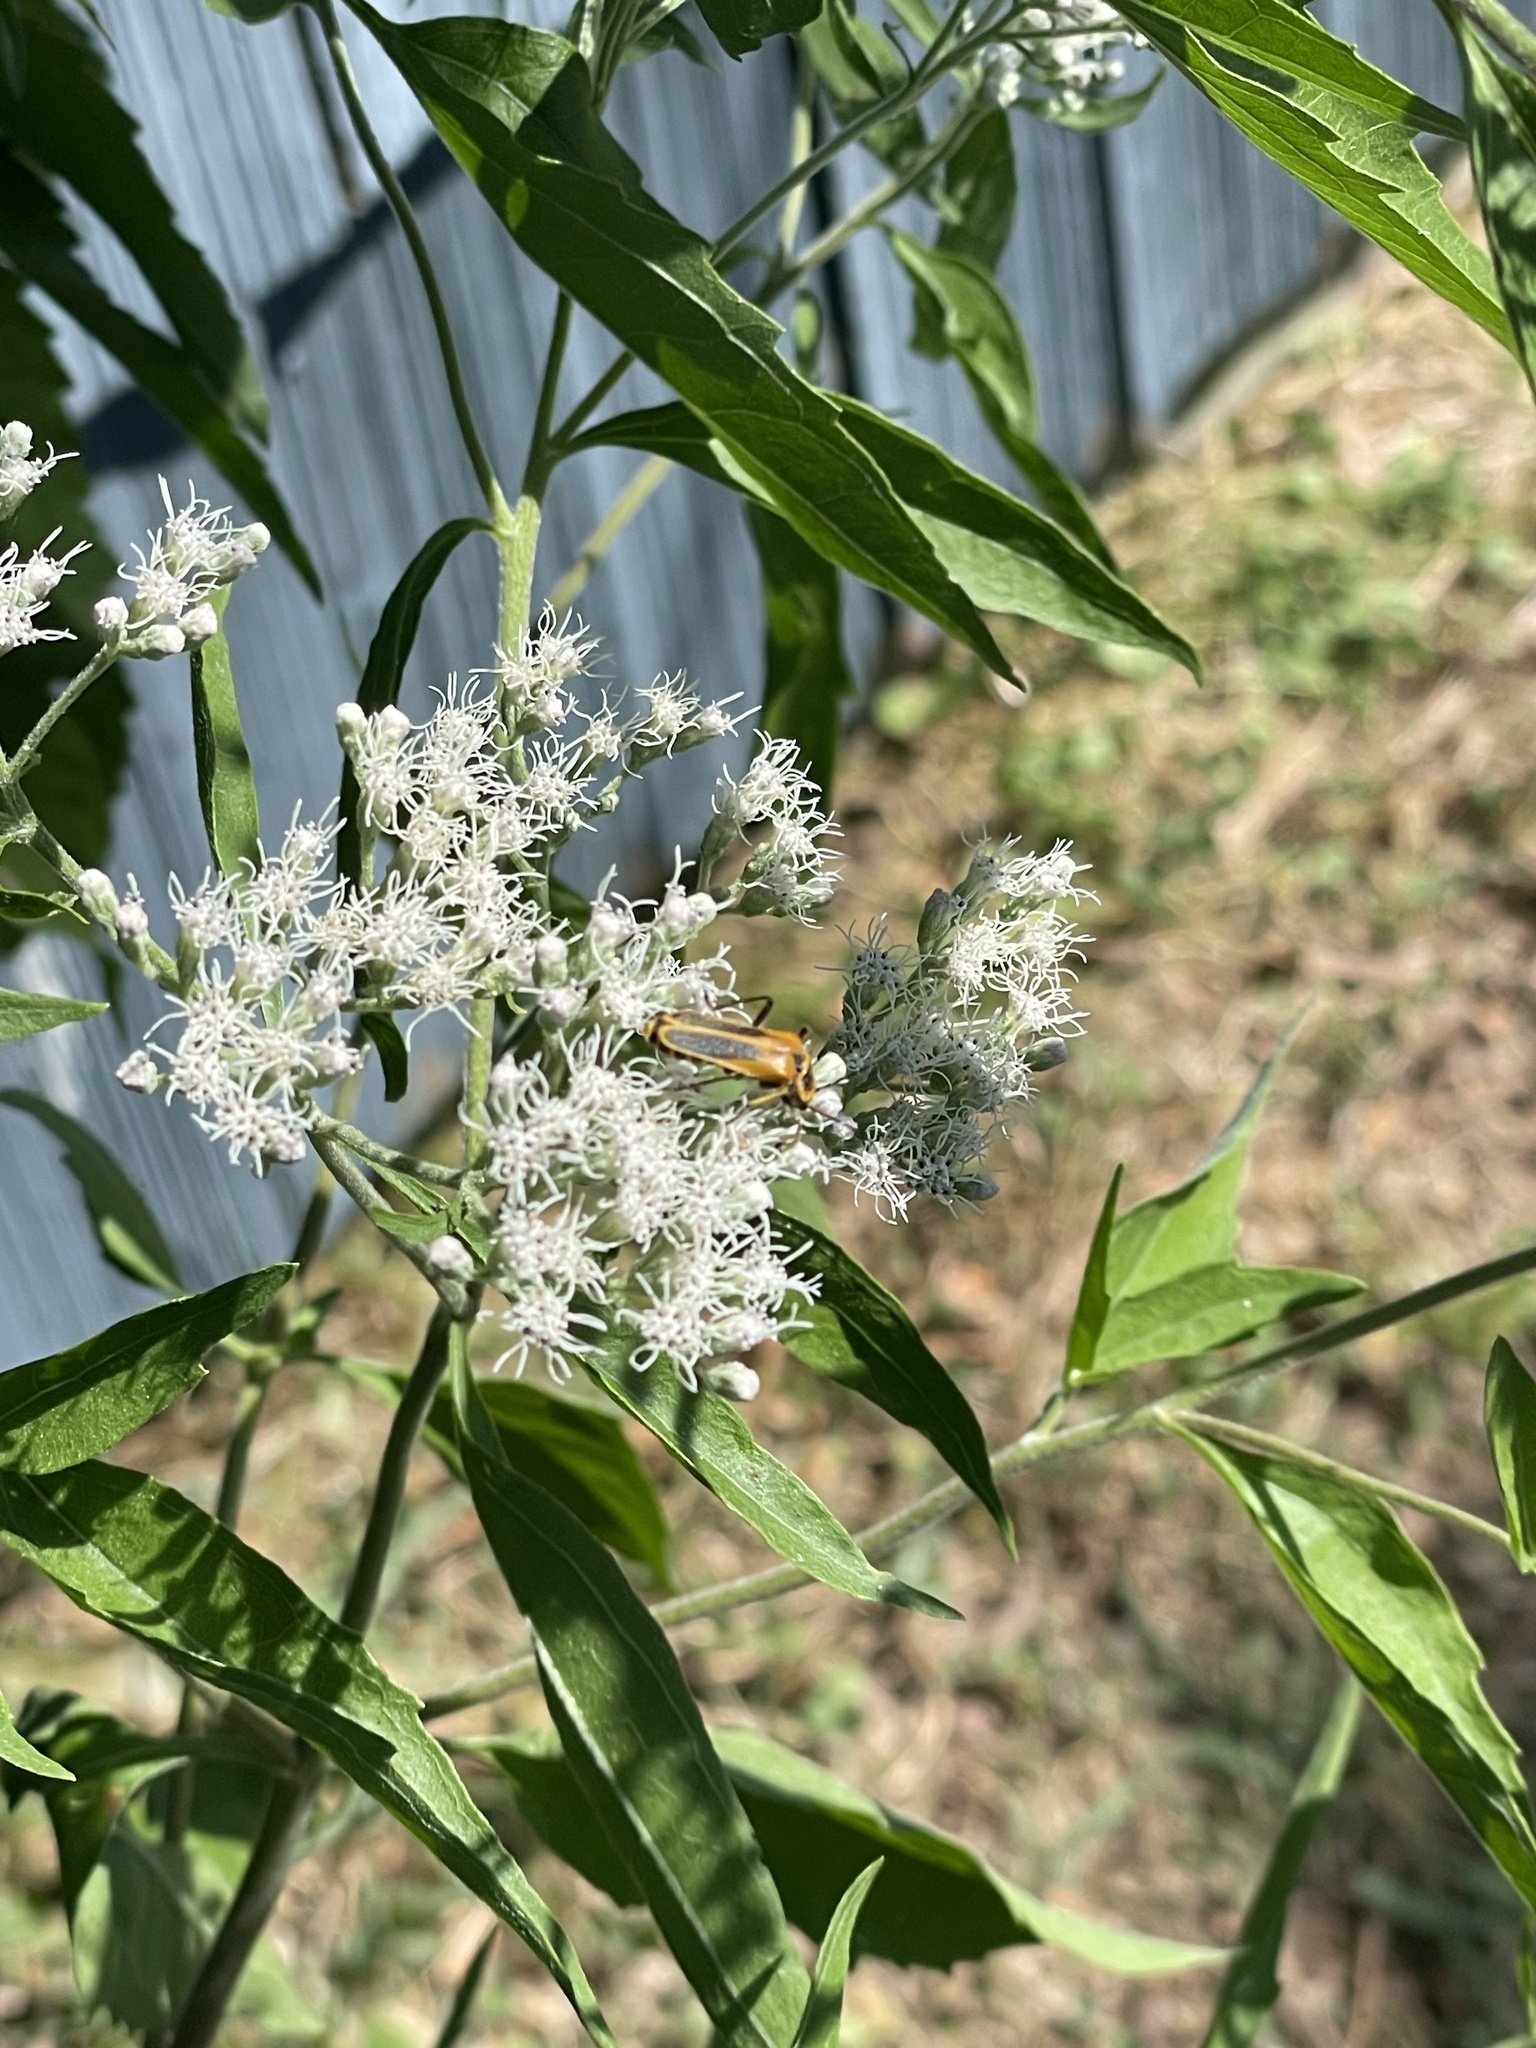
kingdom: Animalia
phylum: Arthropoda
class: Insecta
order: Coleoptera
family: Cantharidae
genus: Chauliognathus
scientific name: Chauliognathus pensylvanicus
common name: Goldenrod soldier beetle
